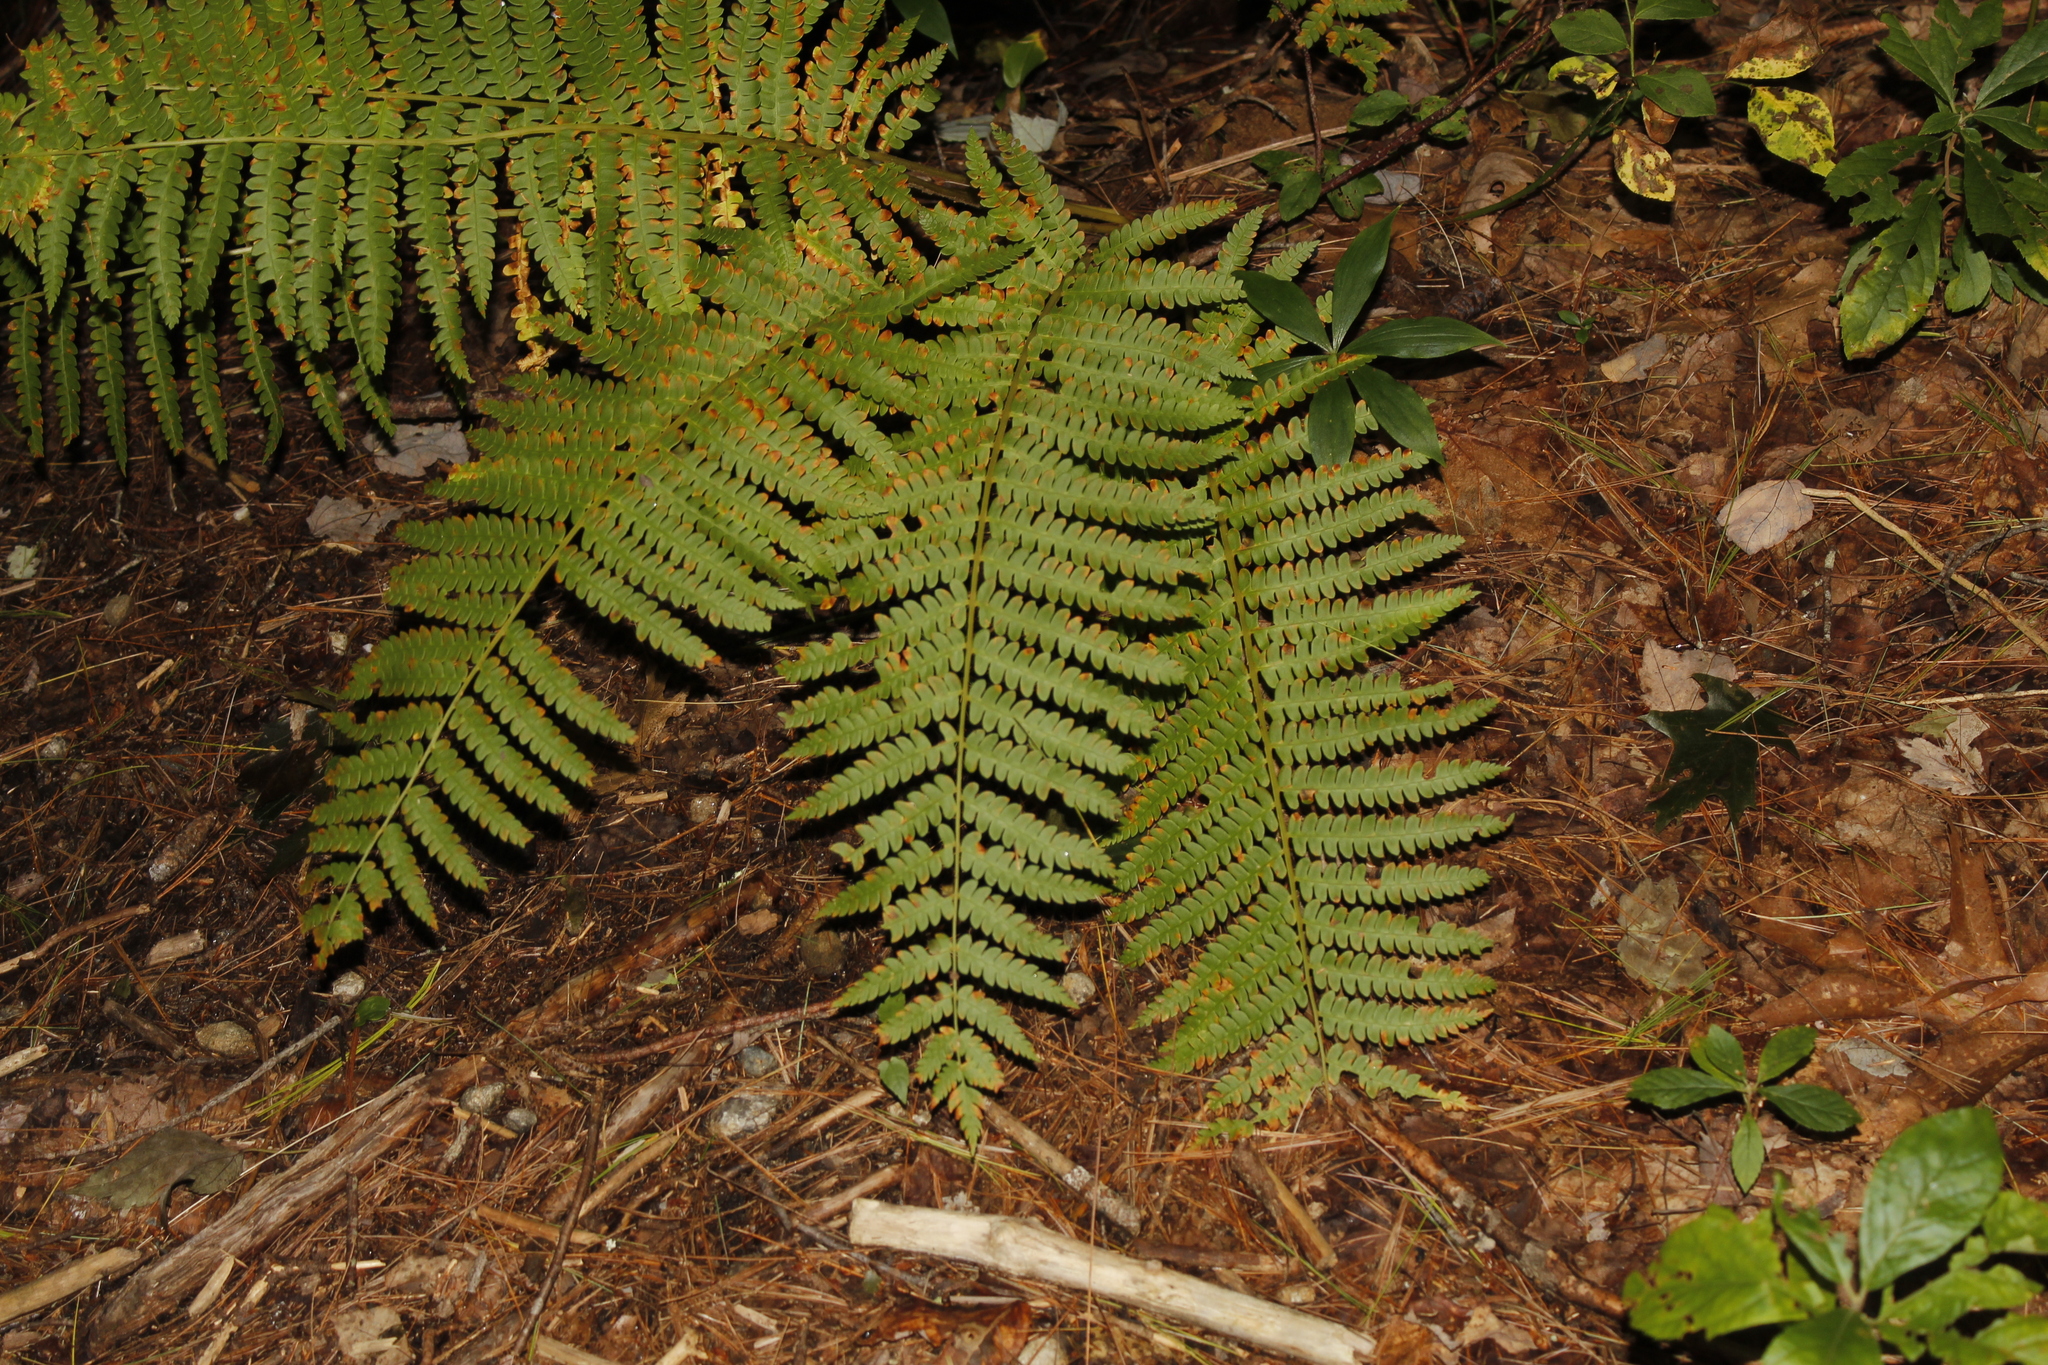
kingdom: Plantae
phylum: Tracheophyta
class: Polypodiopsida
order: Osmundales
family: Osmundaceae
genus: Osmundastrum
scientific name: Osmundastrum cinnamomeum
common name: Cinnamon fern
